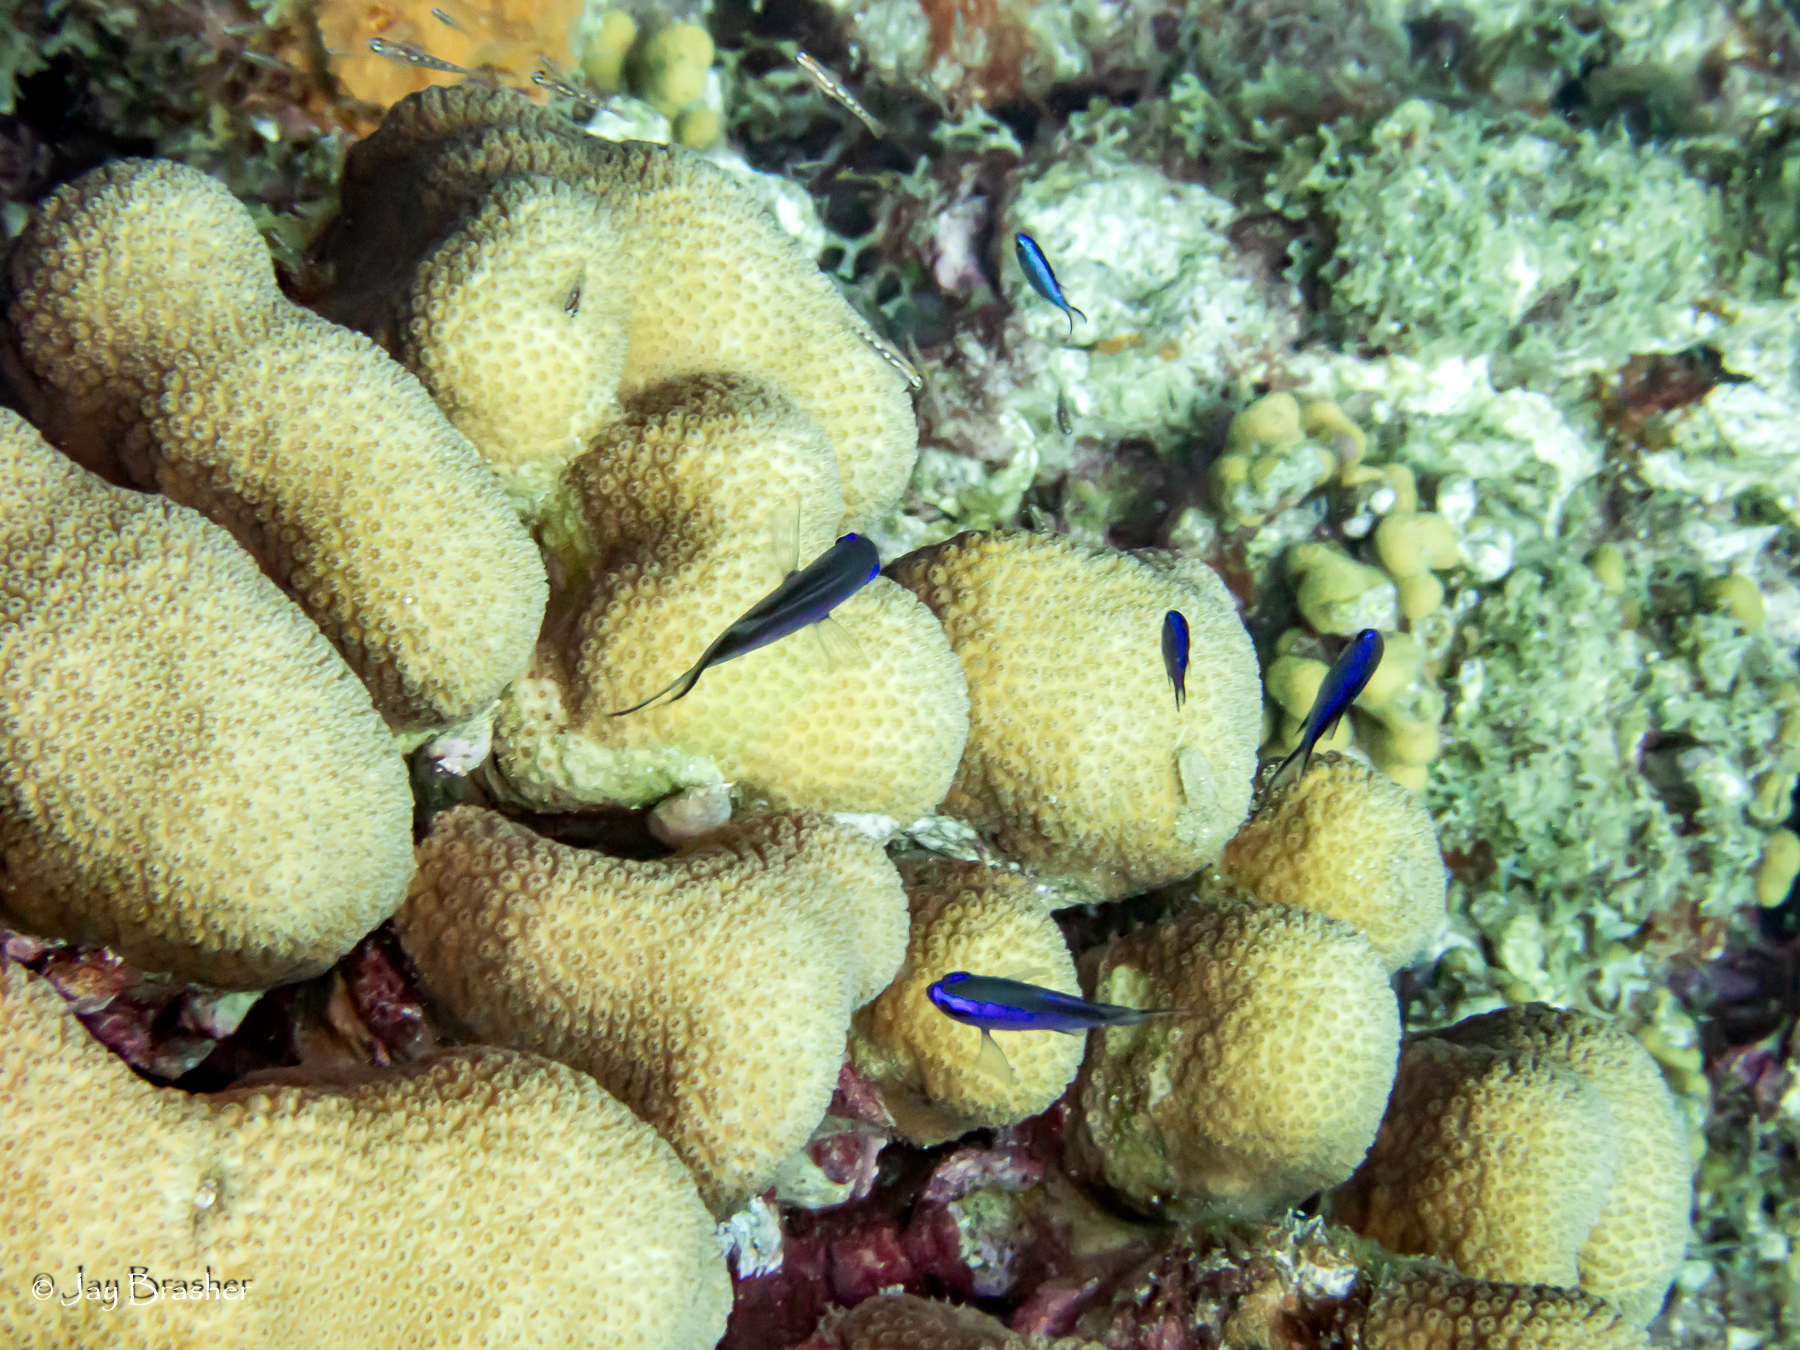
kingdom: Animalia
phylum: Chordata
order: Perciformes
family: Pomacentridae
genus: Chromis
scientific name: Chromis cyanea
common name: Blue chromis
